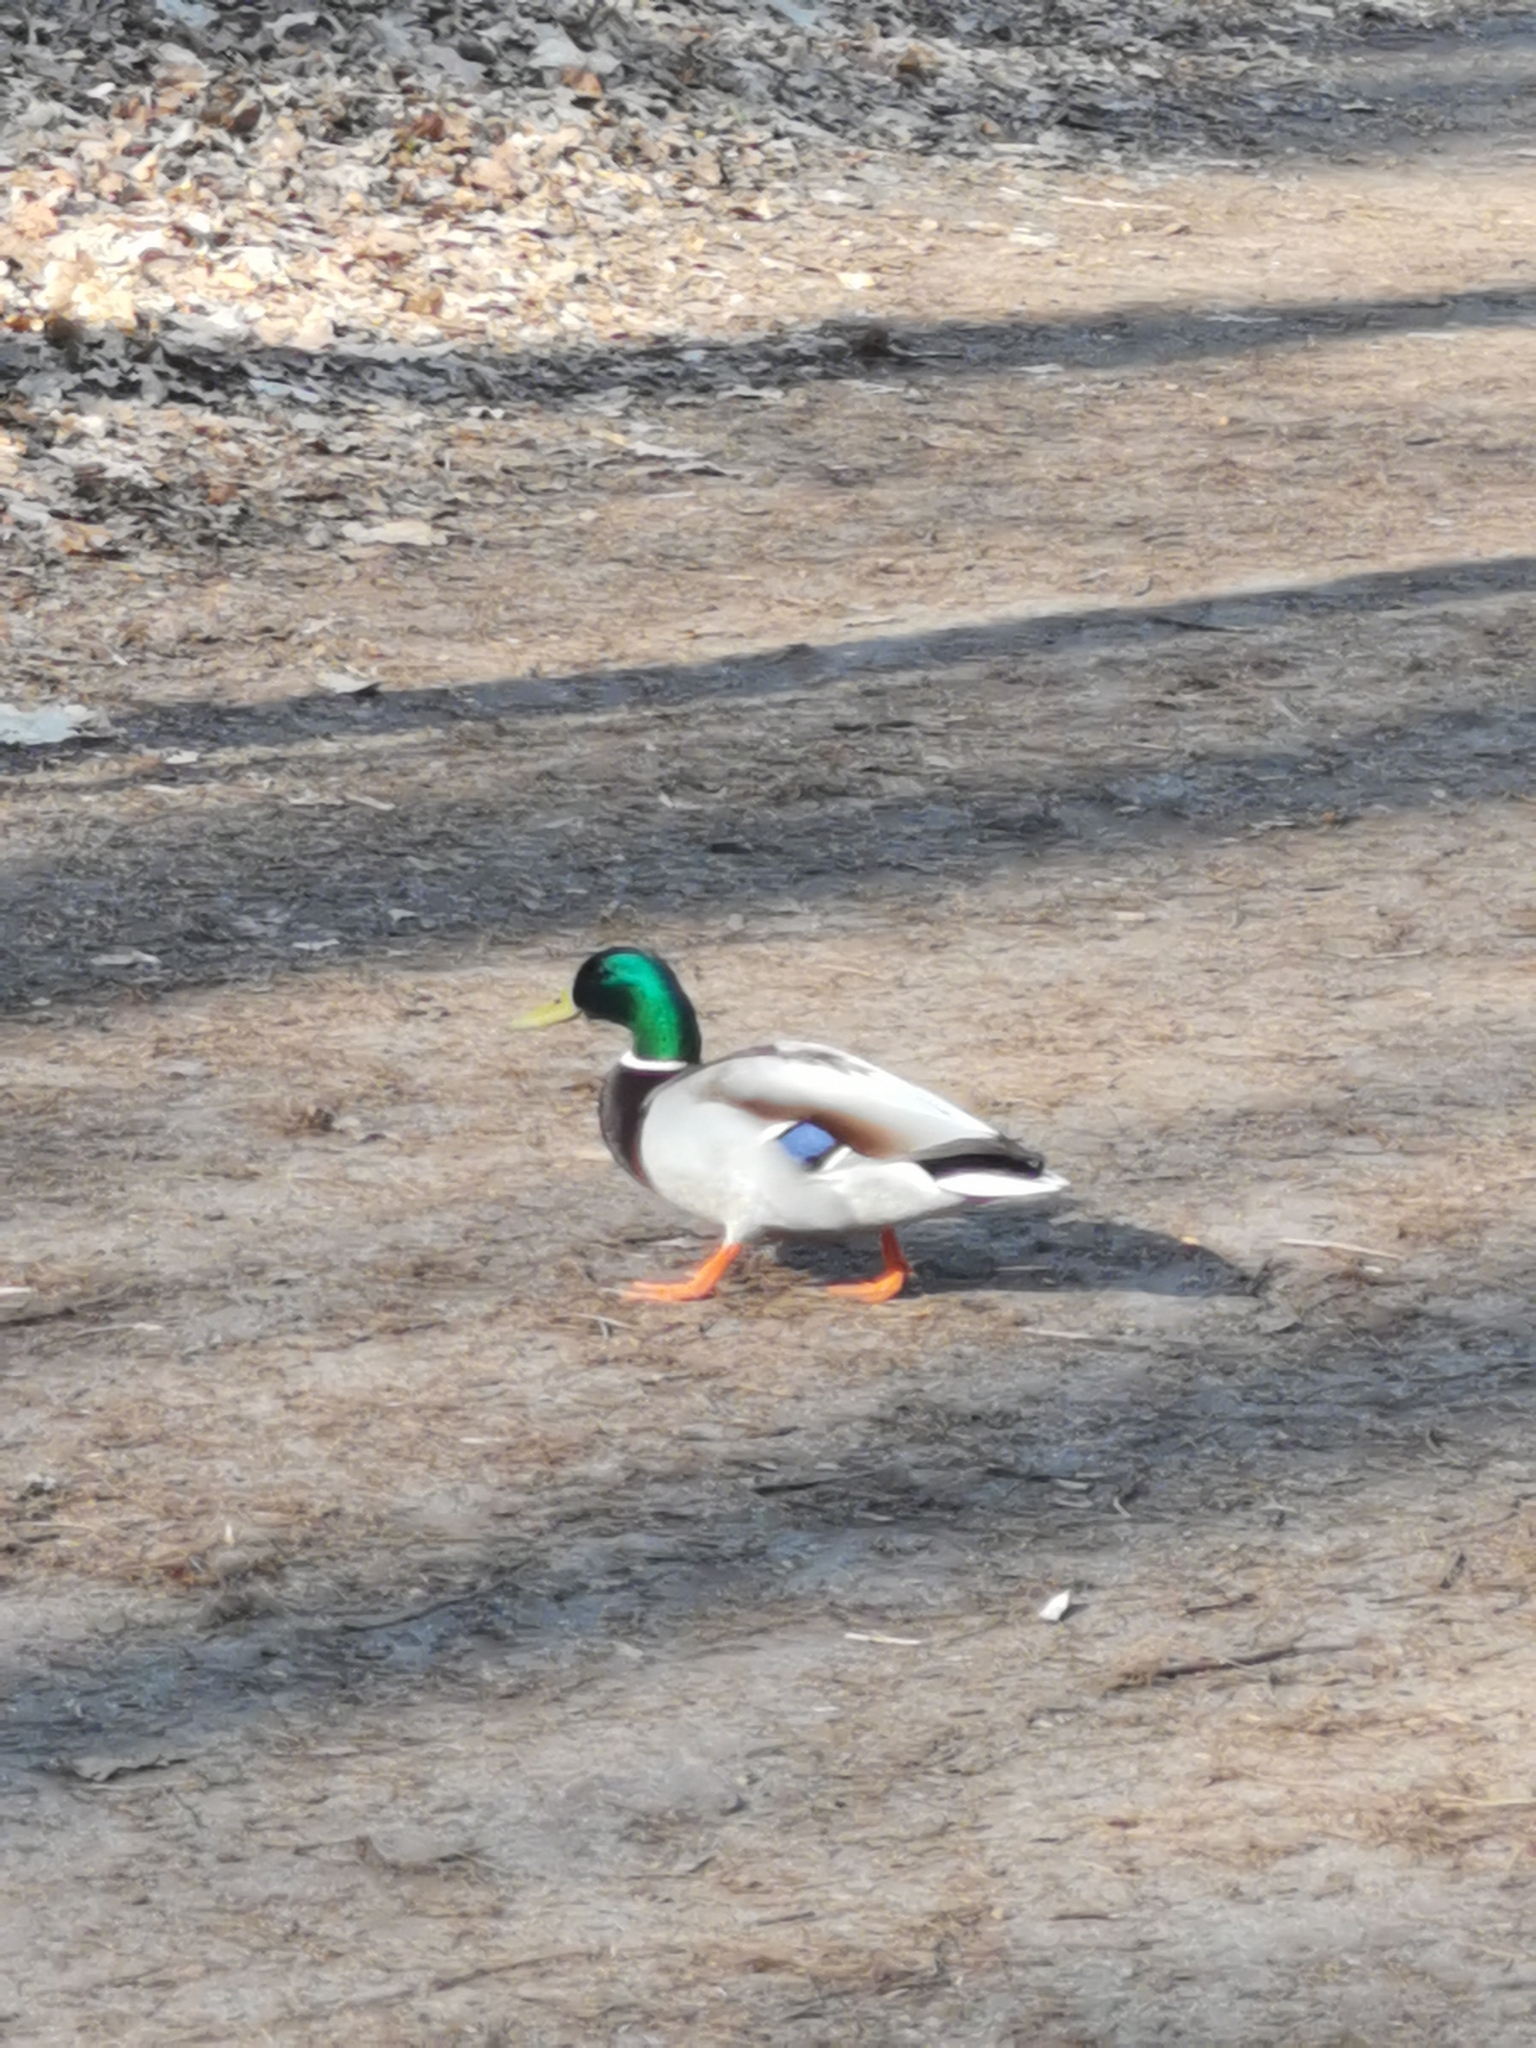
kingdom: Animalia
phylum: Chordata
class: Aves
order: Anseriformes
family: Anatidae
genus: Anas
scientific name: Anas platyrhynchos
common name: Mallard
